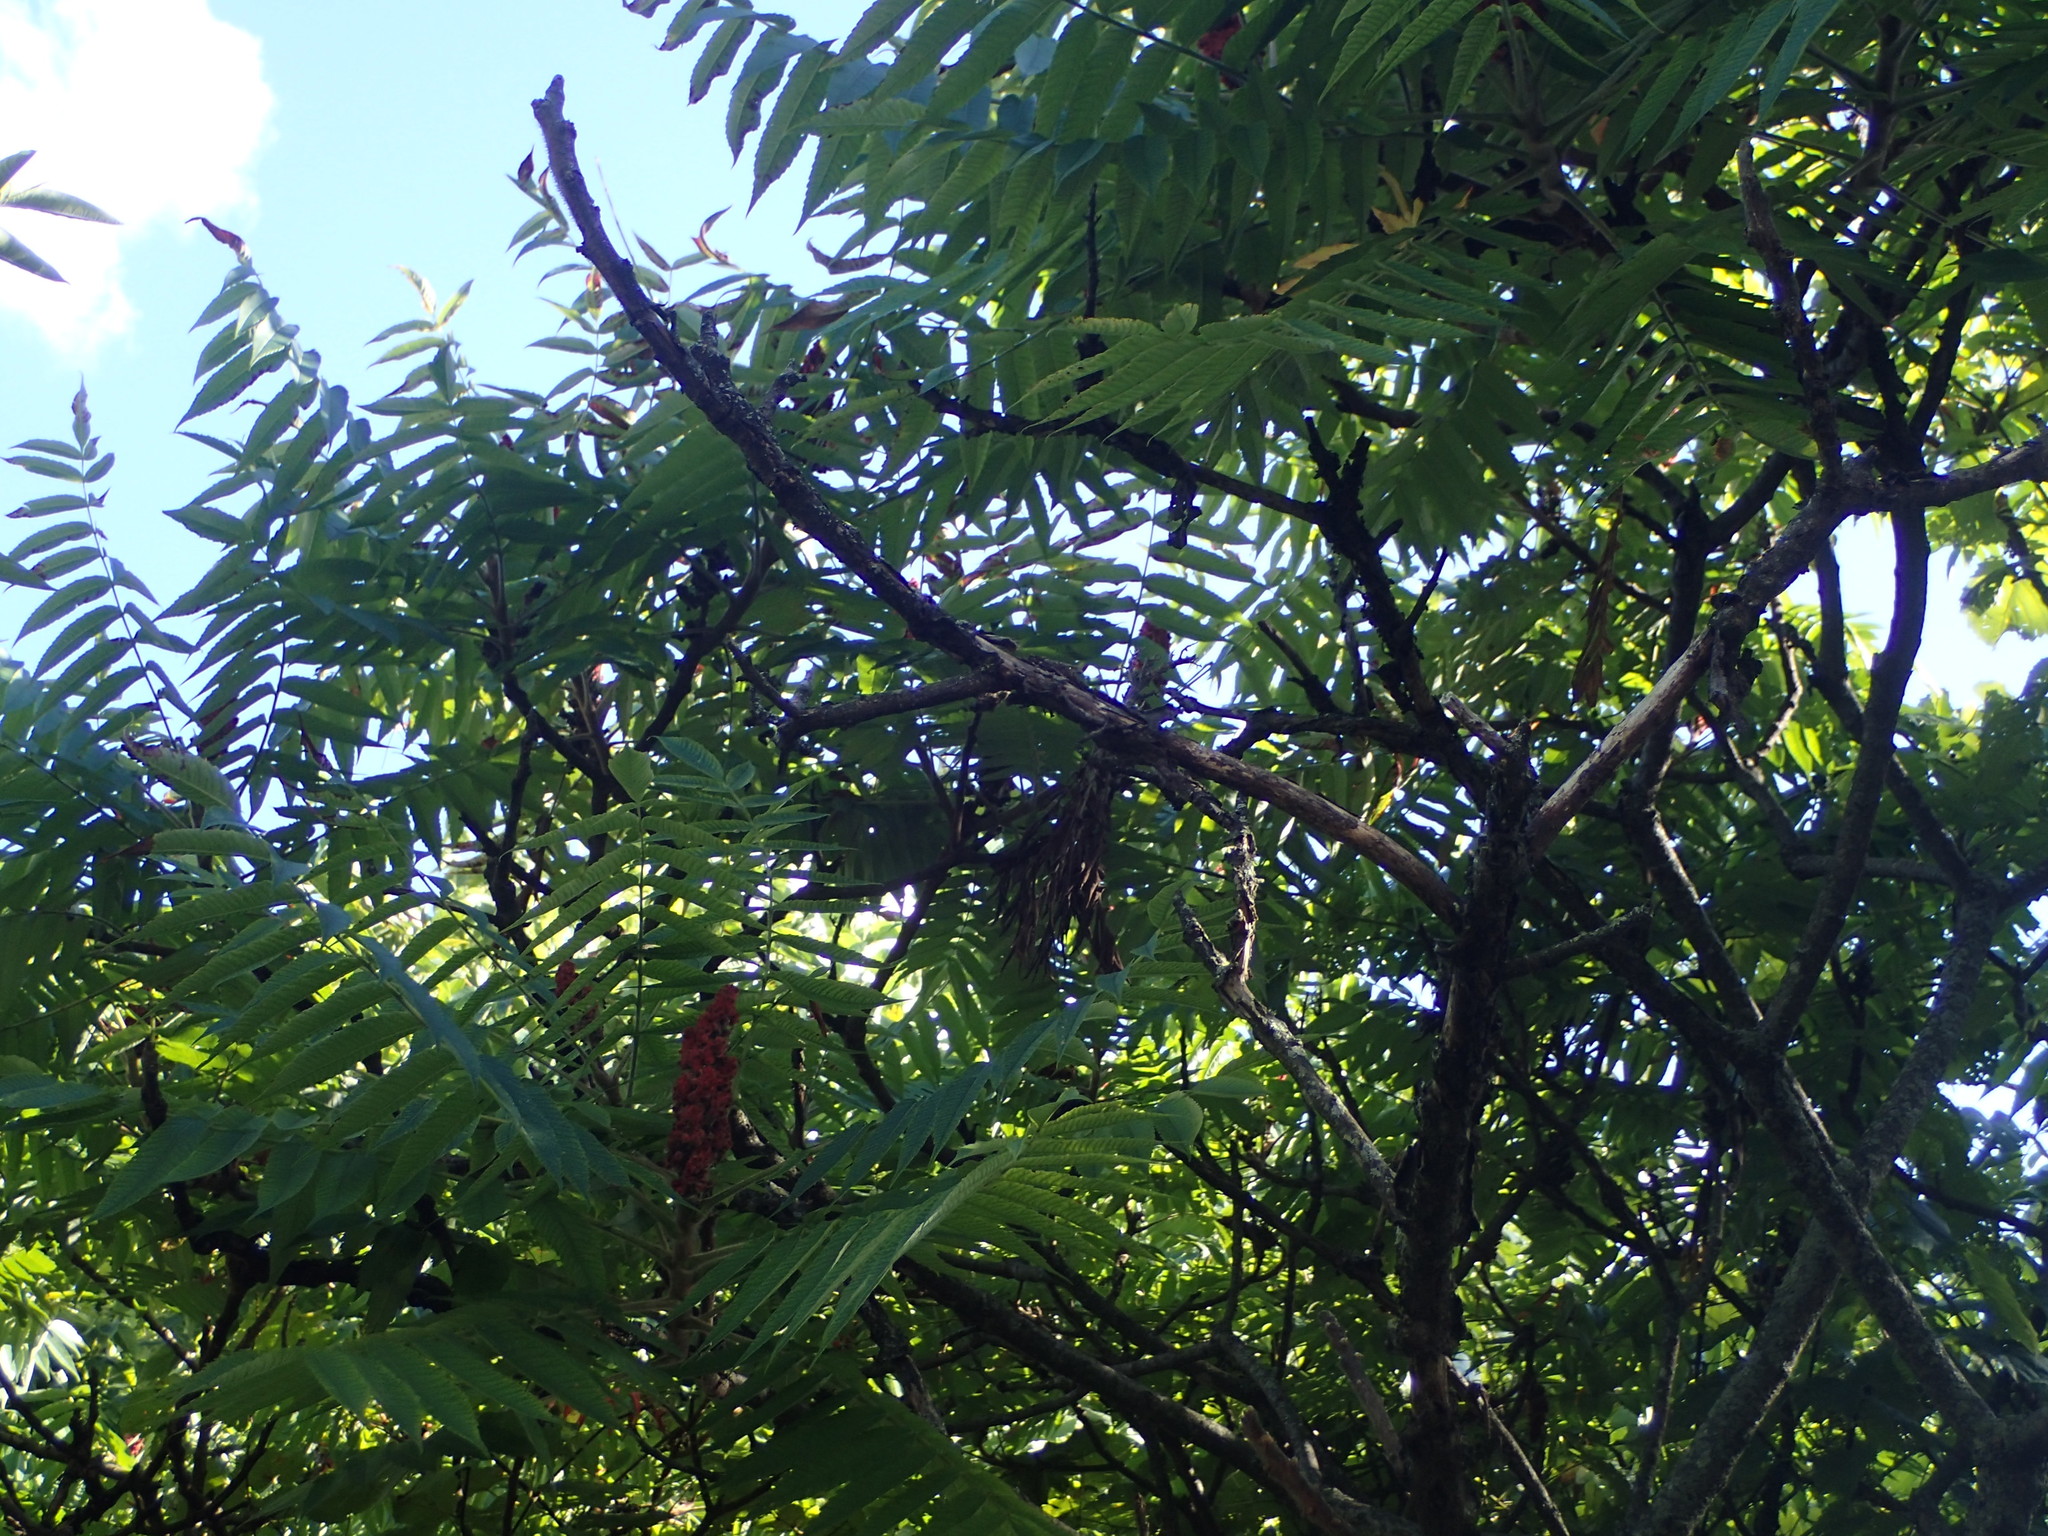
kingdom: Plantae
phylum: Tracheophyta
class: Magnoliopsida
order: Sapindales
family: Anacardiaceae
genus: Rhus
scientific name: Rhus typhina
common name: Staghorn sumac
